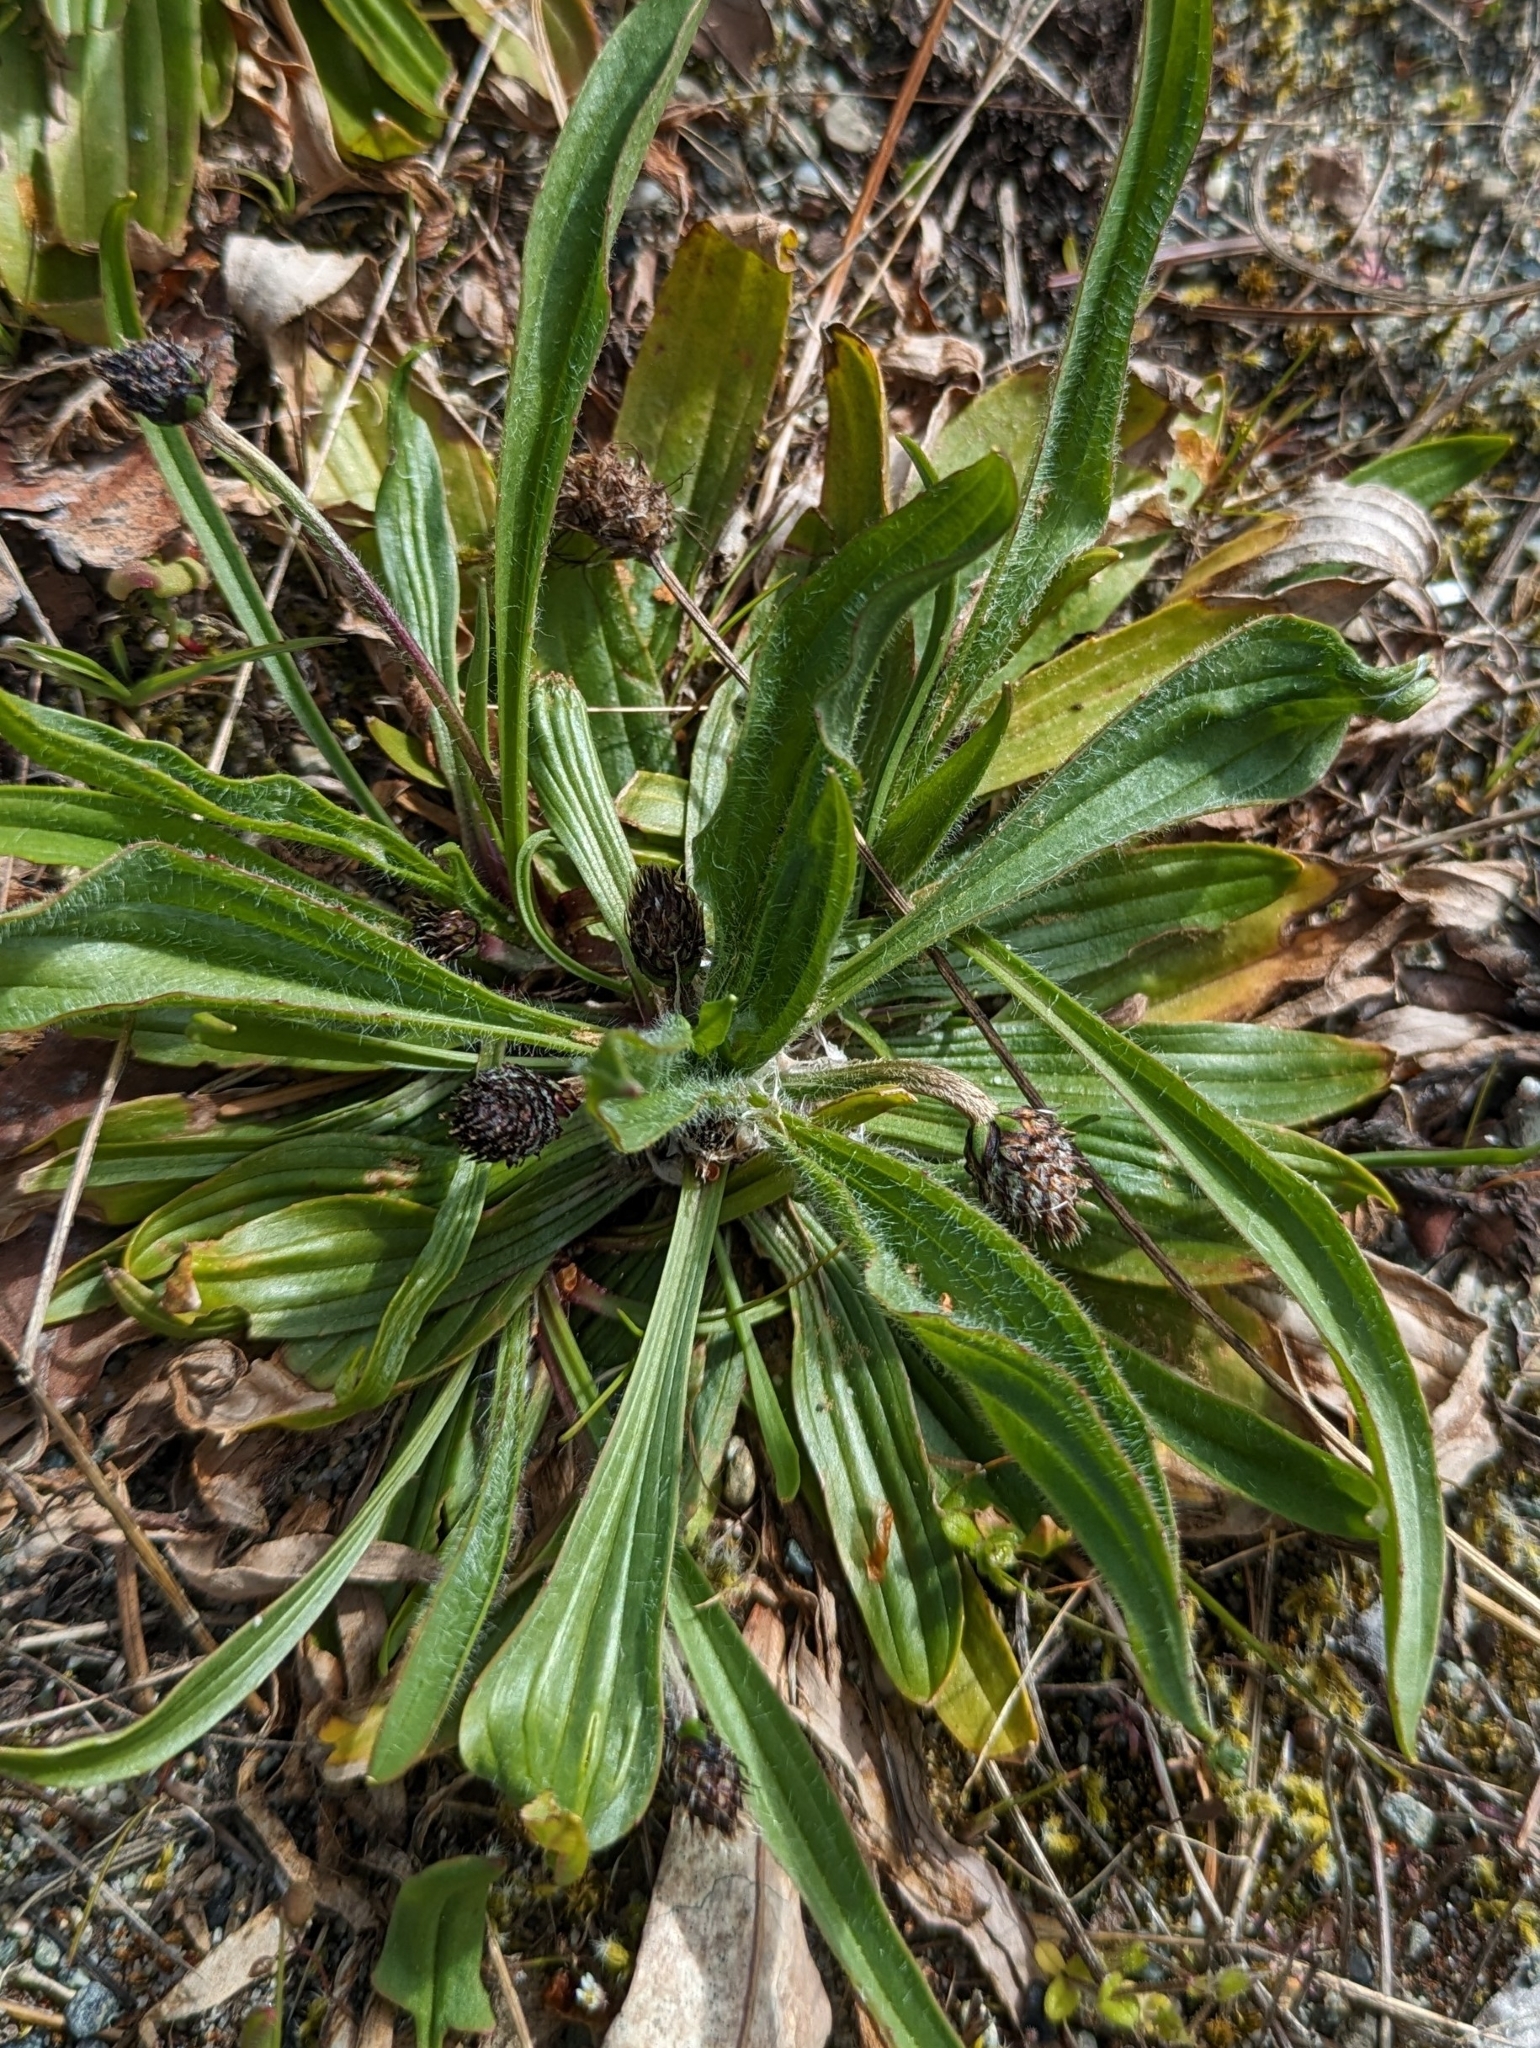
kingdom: Plantae
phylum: Tracheophyta
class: Magnoliopsida
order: Lamiales
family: Plantaginaceae
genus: Plantago
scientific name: Plantago lanceolata
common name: Ribwort plantain
